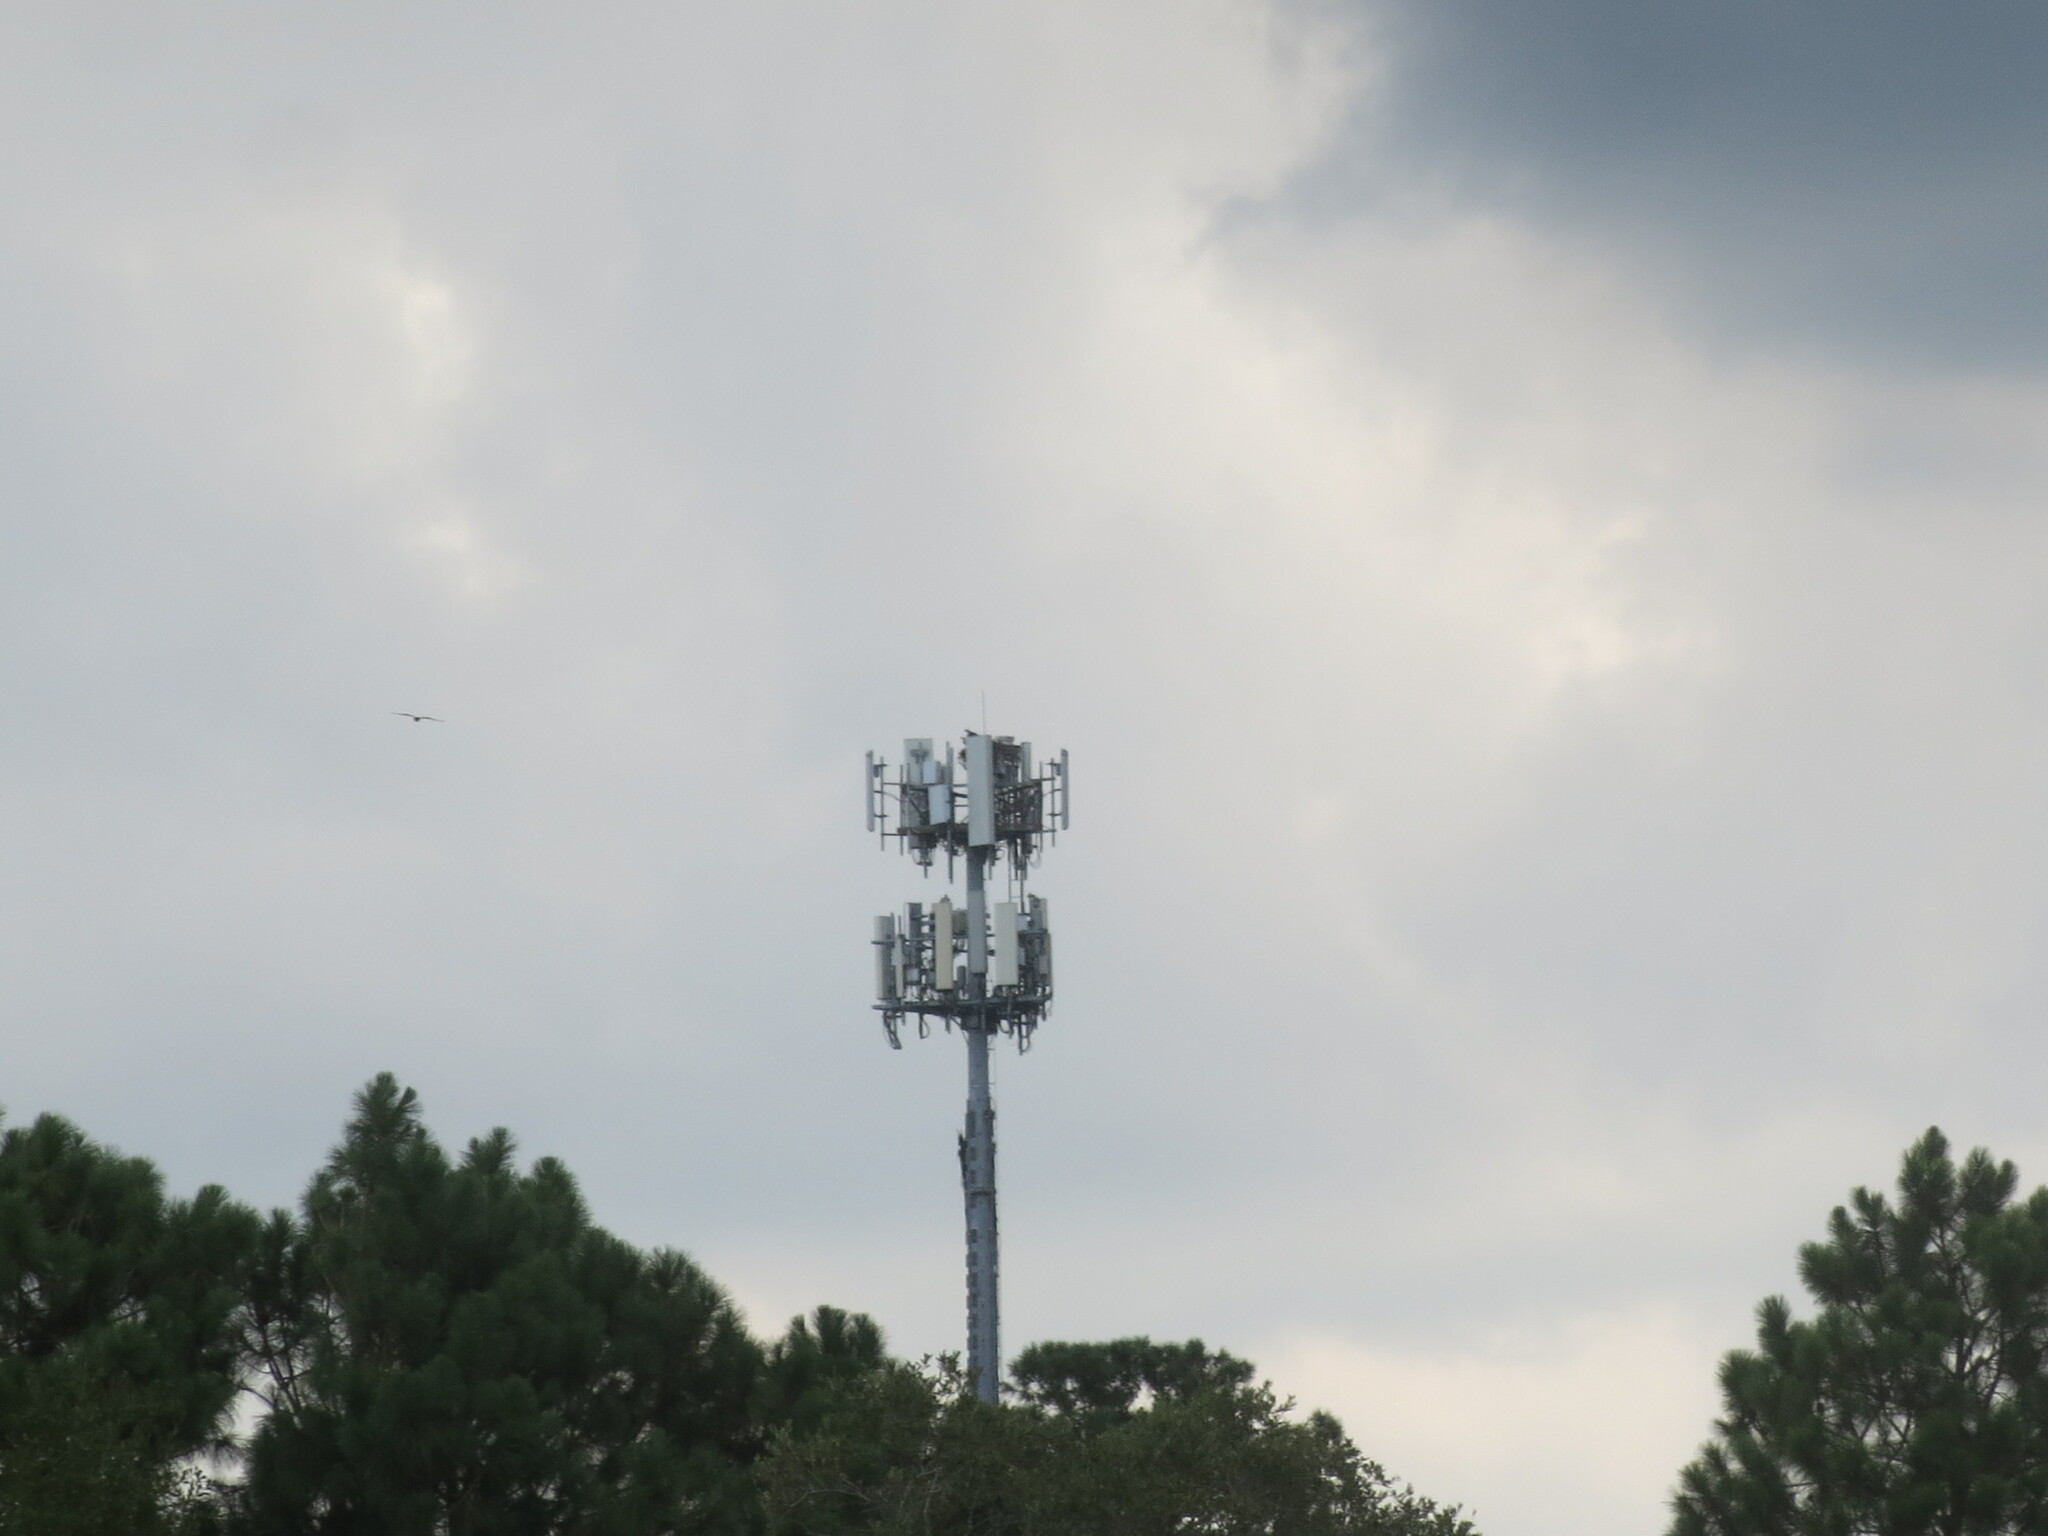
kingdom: Animalia
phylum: Chordata
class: Aves
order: Accipitriformes
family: Pandionidae
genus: Pandion
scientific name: Pandion haliaetus
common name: Osprey
